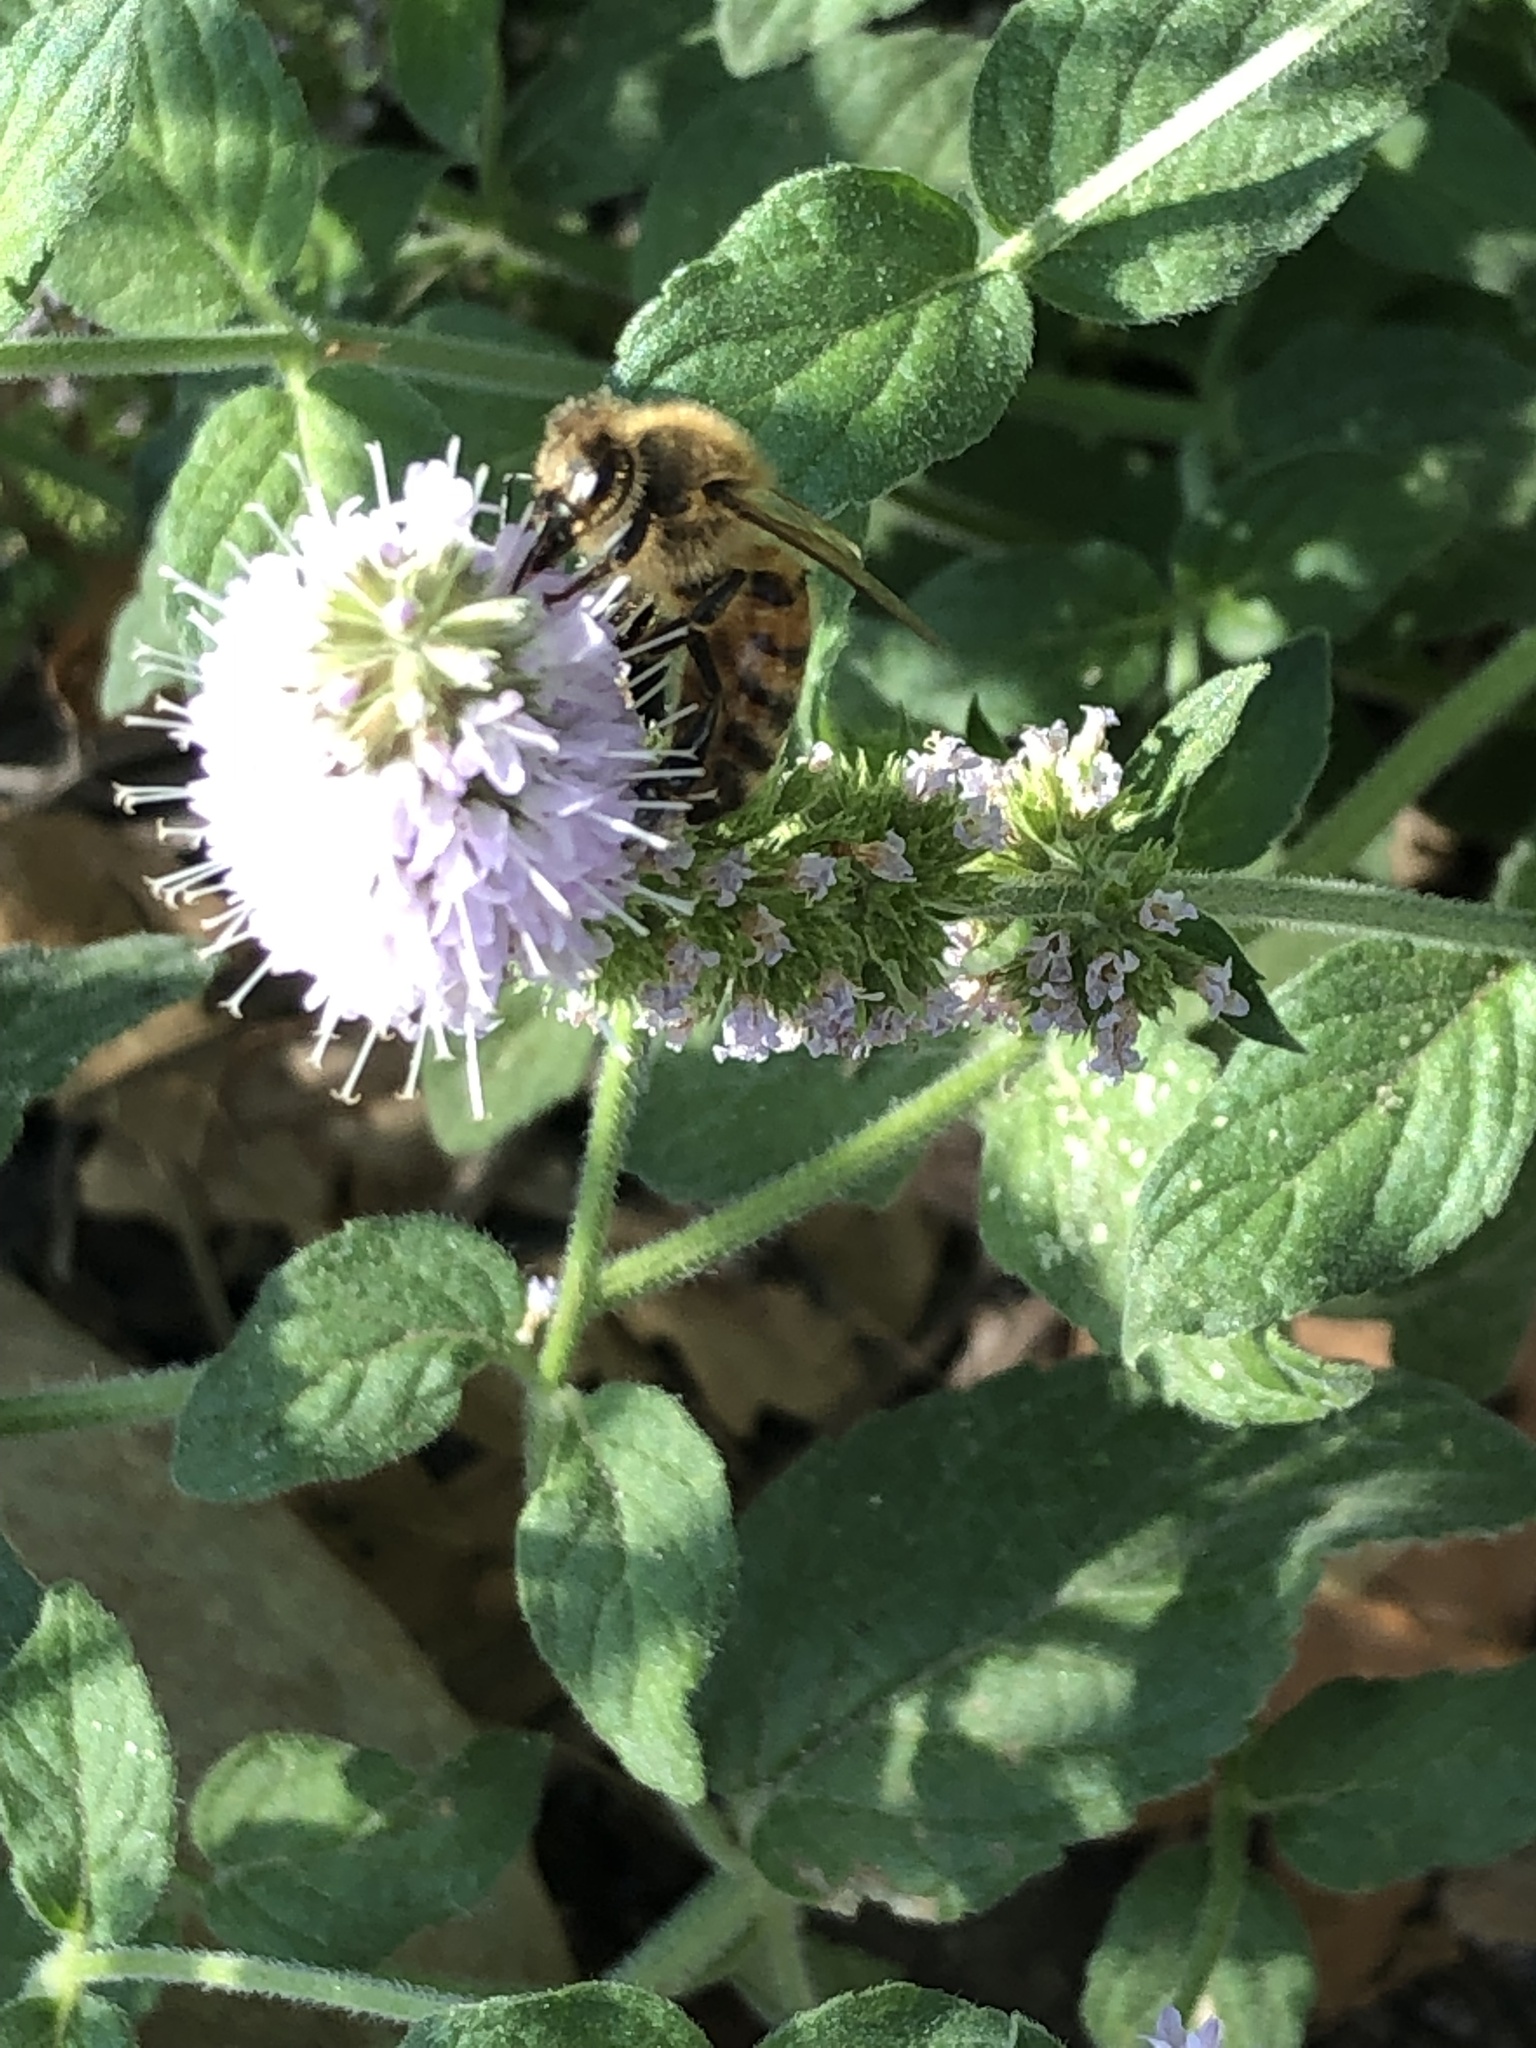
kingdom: Animalia
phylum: Arthropoda
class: Insecta
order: Hymenoptera
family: Apidae
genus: Apis
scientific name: Apis mellifera
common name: Honey bee
